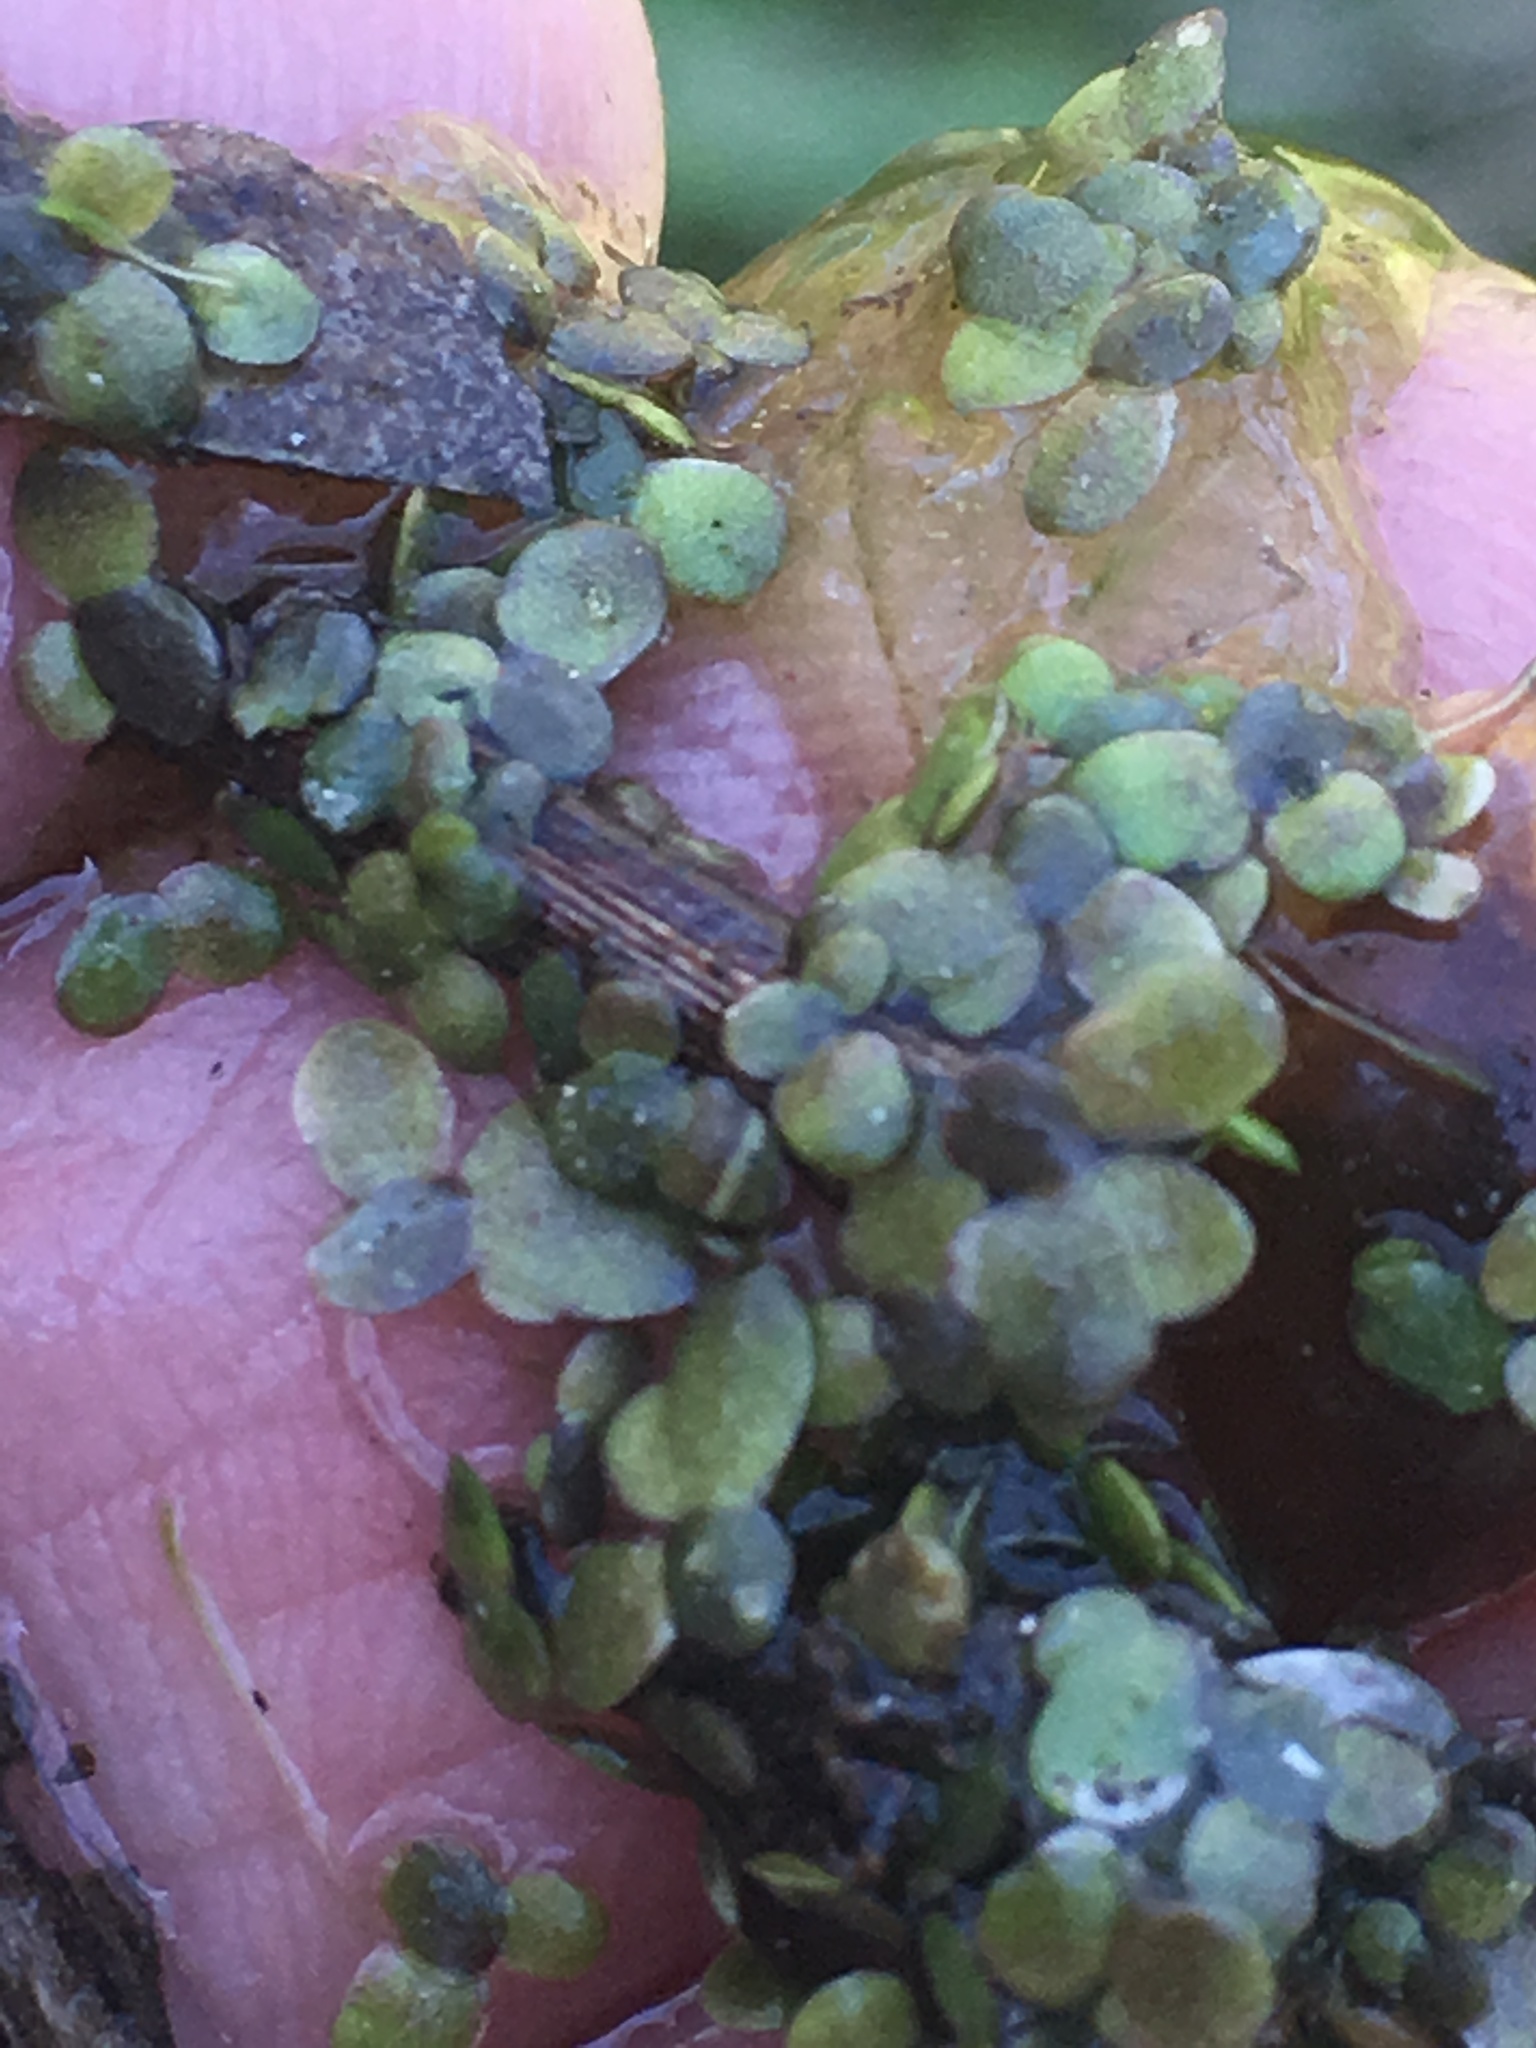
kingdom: Plantae
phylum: Tracheophyta
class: Liliopsida
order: Alismatales
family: Araceae
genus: Lemna
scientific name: Lemna minor
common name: Common duckweed
